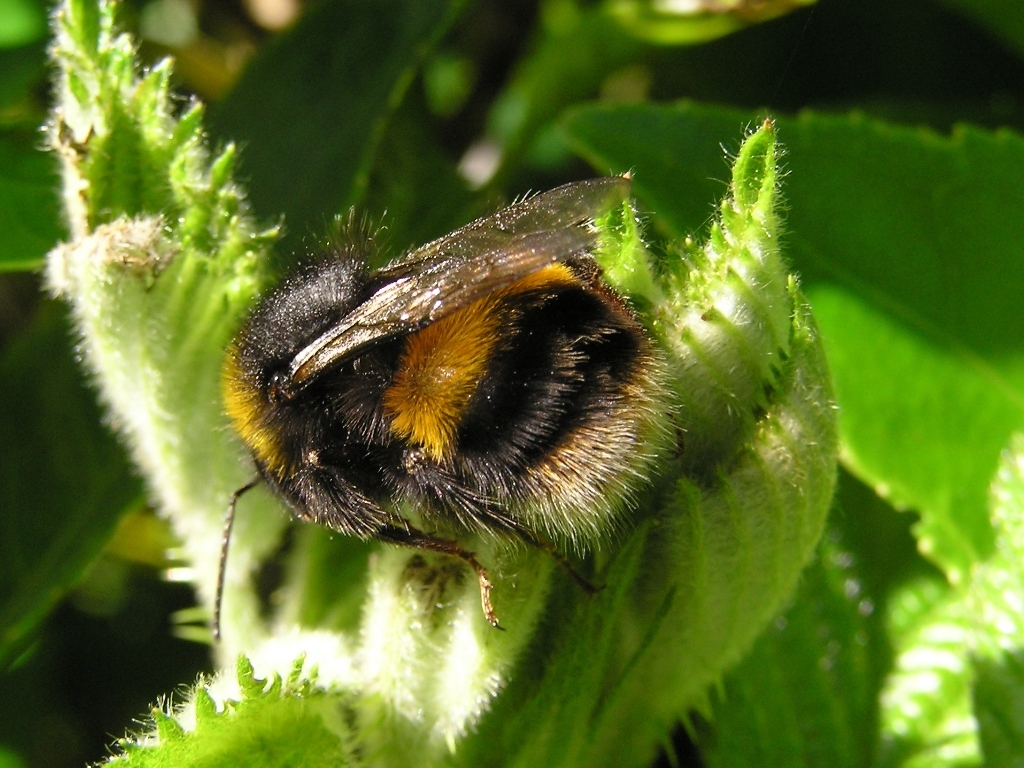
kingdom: Animalia
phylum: Arthropoda
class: Insecta
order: Hymenoptera
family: Apidae
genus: Bombus
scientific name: Bombus terrestris
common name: Buff-tailed bumblebee
